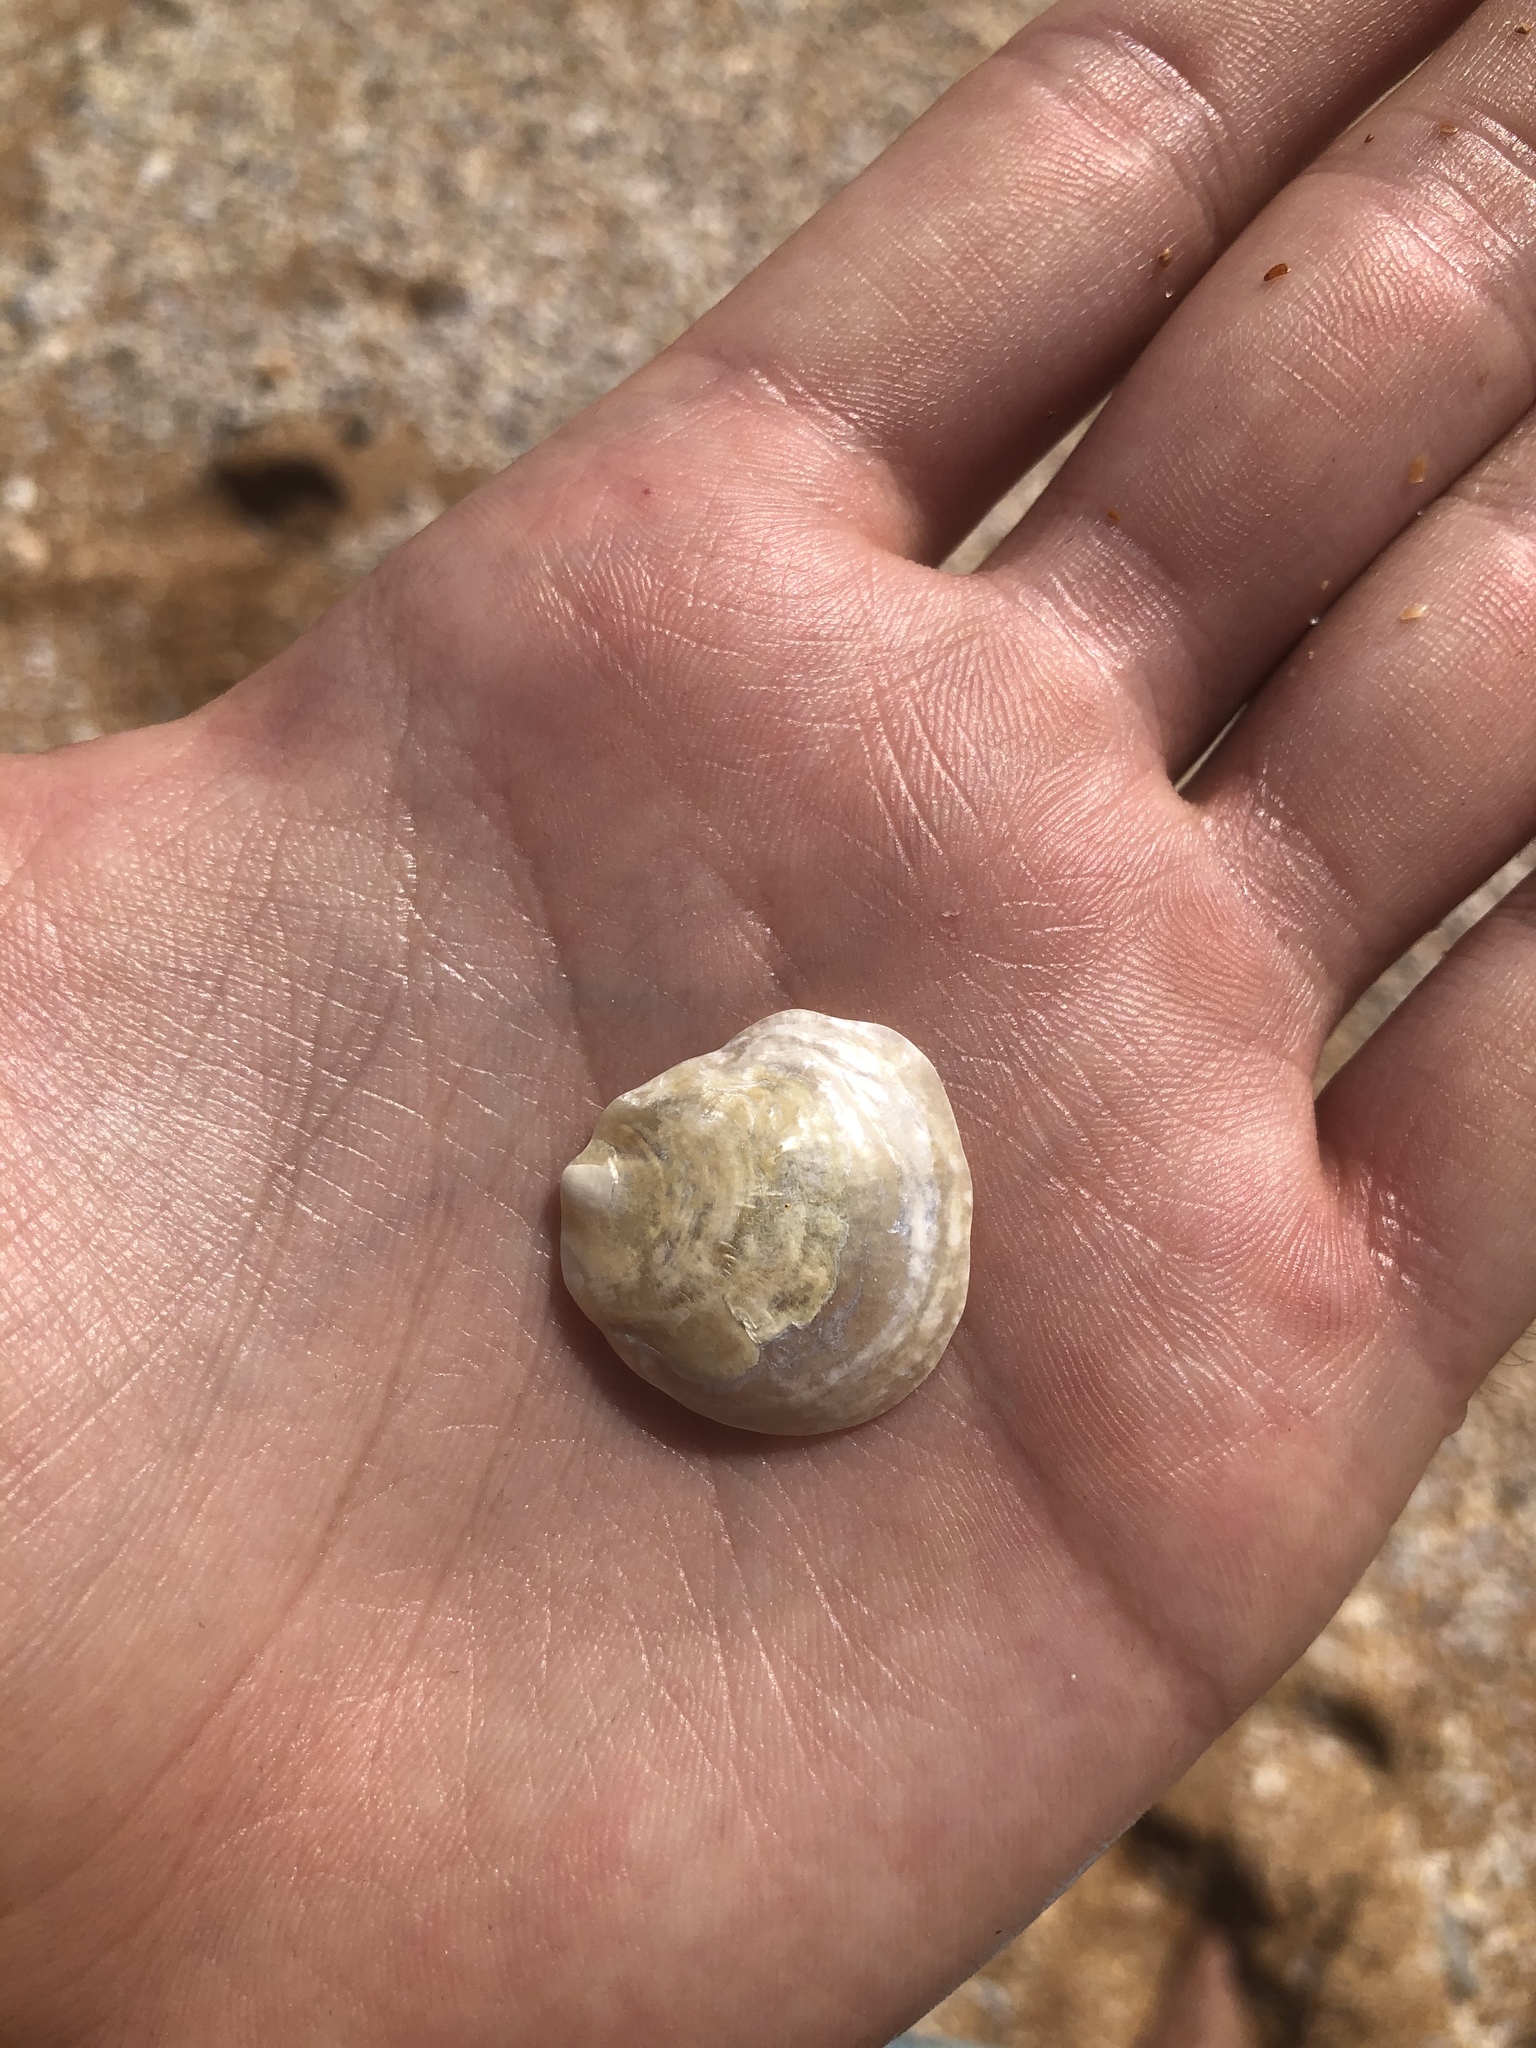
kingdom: Animalia
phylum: Mollusca
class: Bivalvia
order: Pectinida
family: Anomiidae
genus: Anomia
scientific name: Anomia simplex
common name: Common jingle shell
